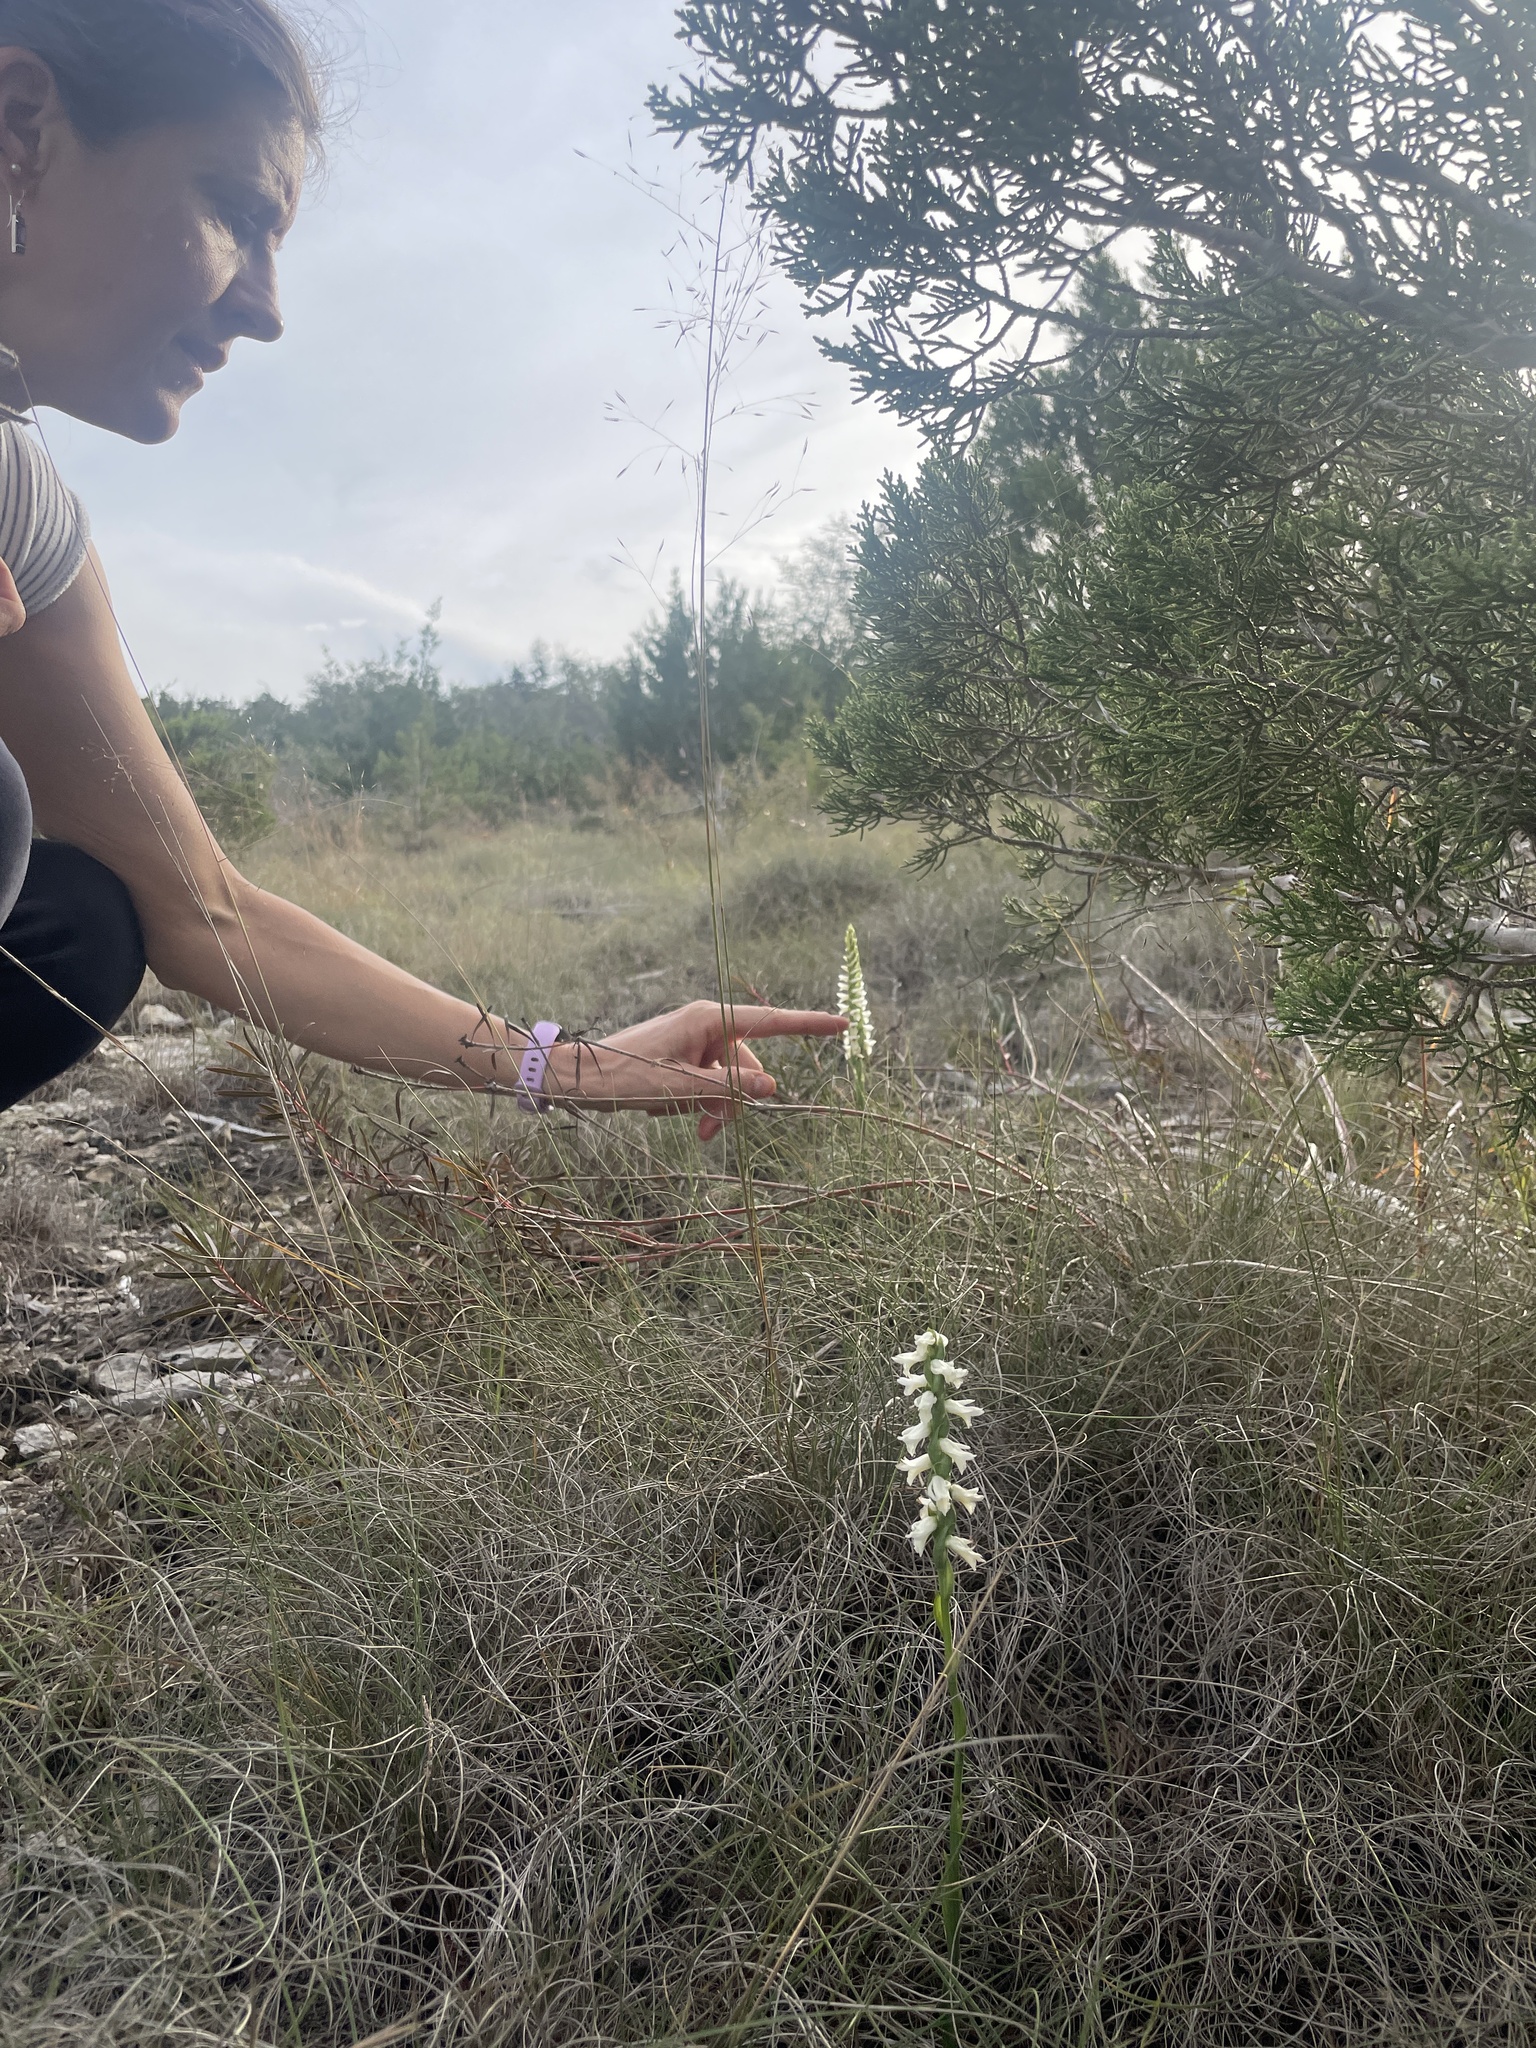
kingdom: Plantae
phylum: Tracheophyta
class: Liliopsida
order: Asparagales
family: Orchidaceae
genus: Spiranthes
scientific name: Spiranthes magnicamporum
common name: Great plains ladies'-tresses
